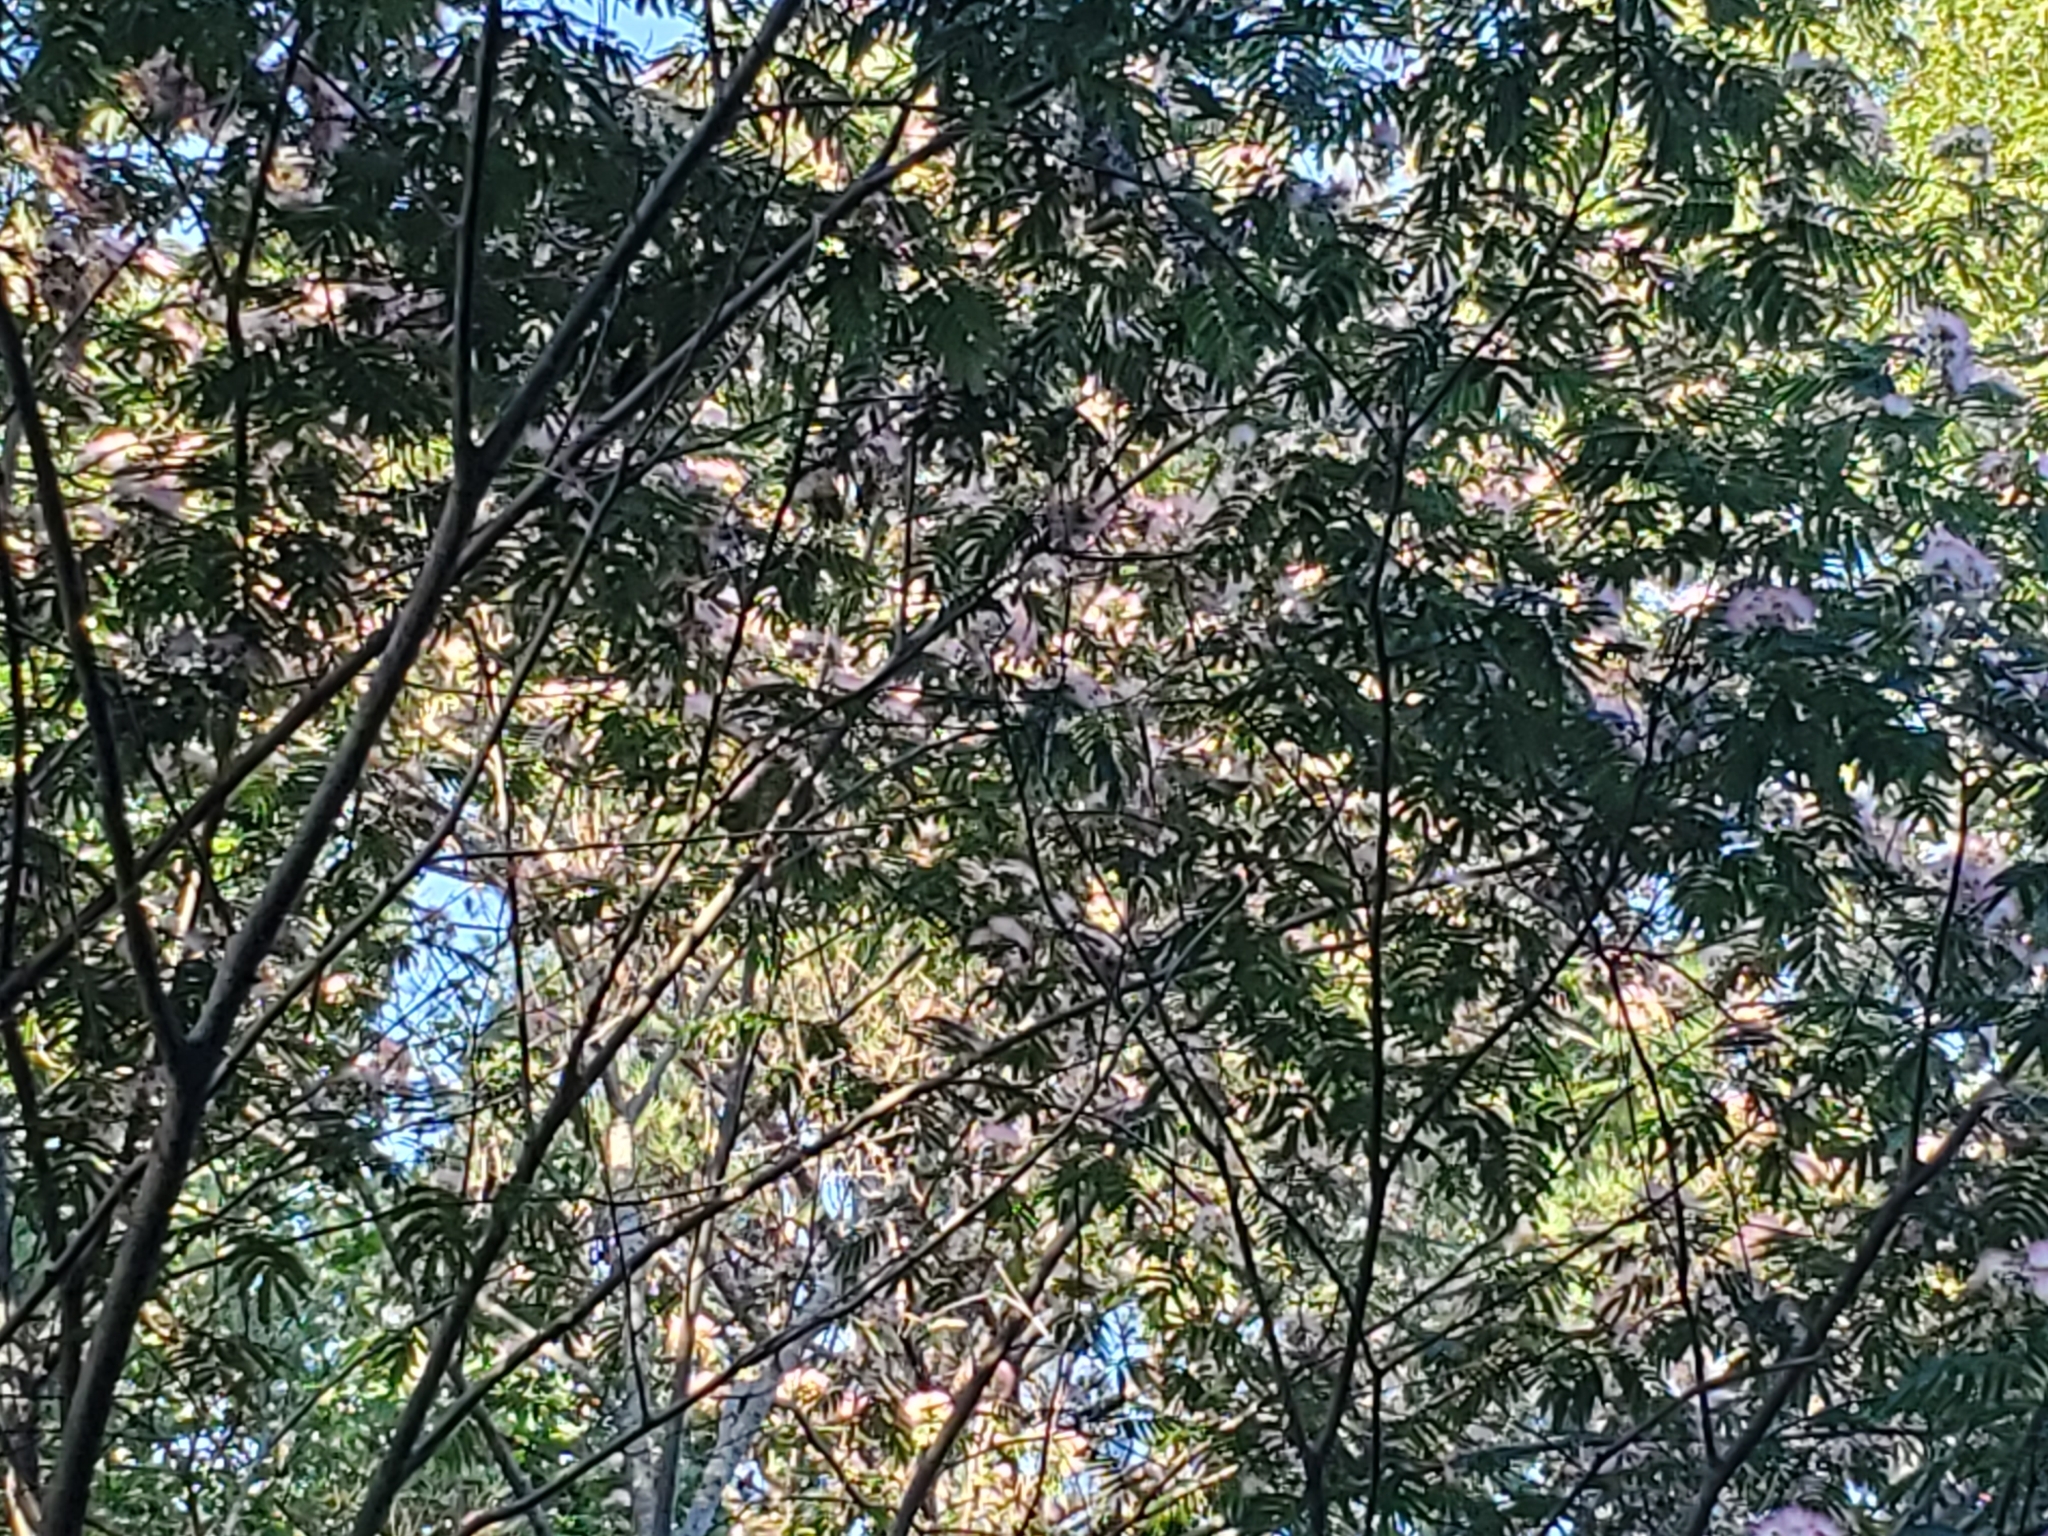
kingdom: Plantae
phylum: Tracheophyta
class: Magnoliopsida
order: Fabales
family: Fabaceae
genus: Albizia
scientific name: Albizia julibrissin
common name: Silktree
